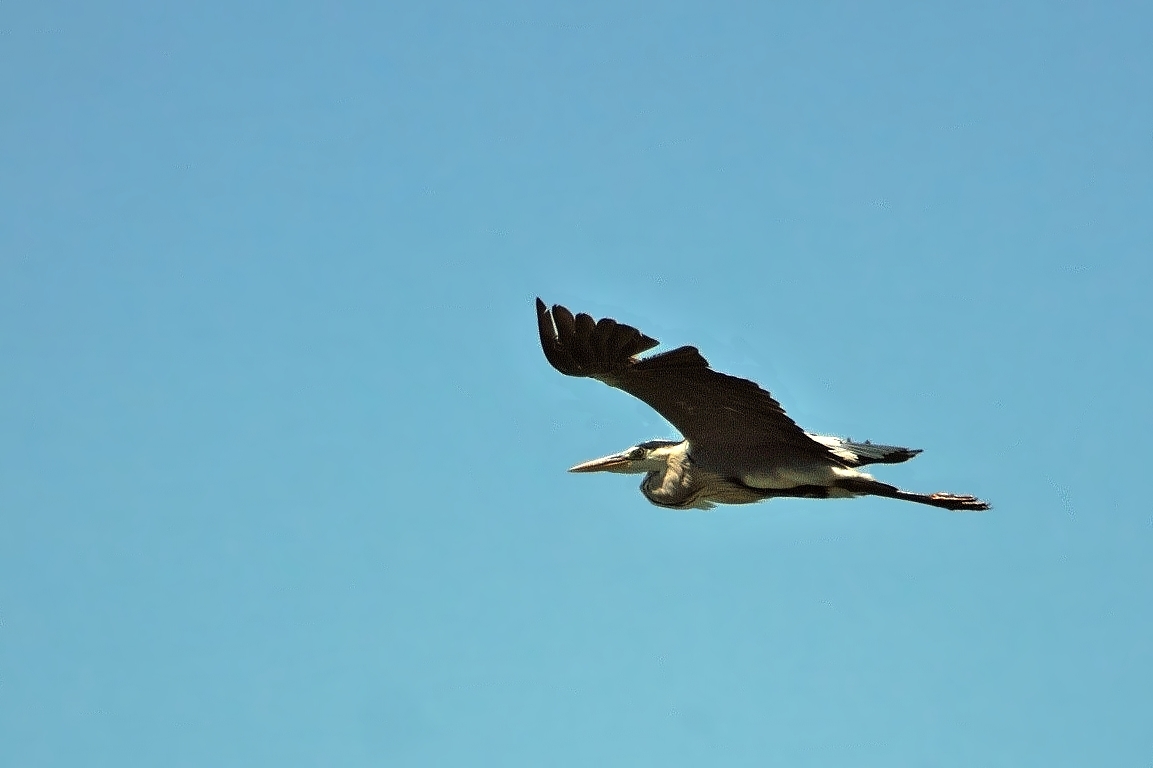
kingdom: Animalia
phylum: Chordata
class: Aves
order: Pelecaniformes
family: Ardeidae
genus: Ardea
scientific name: Ardea cinerea
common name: Grey heron
